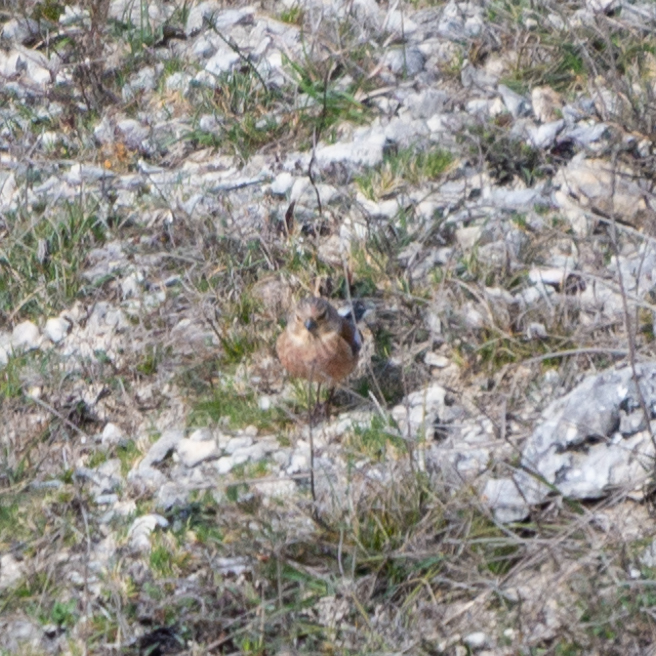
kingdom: Animalia
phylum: Chordata
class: Aves
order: Passeriformes
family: Fringillidae
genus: Linaria
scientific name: Linaria cannabina
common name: Common linnet
